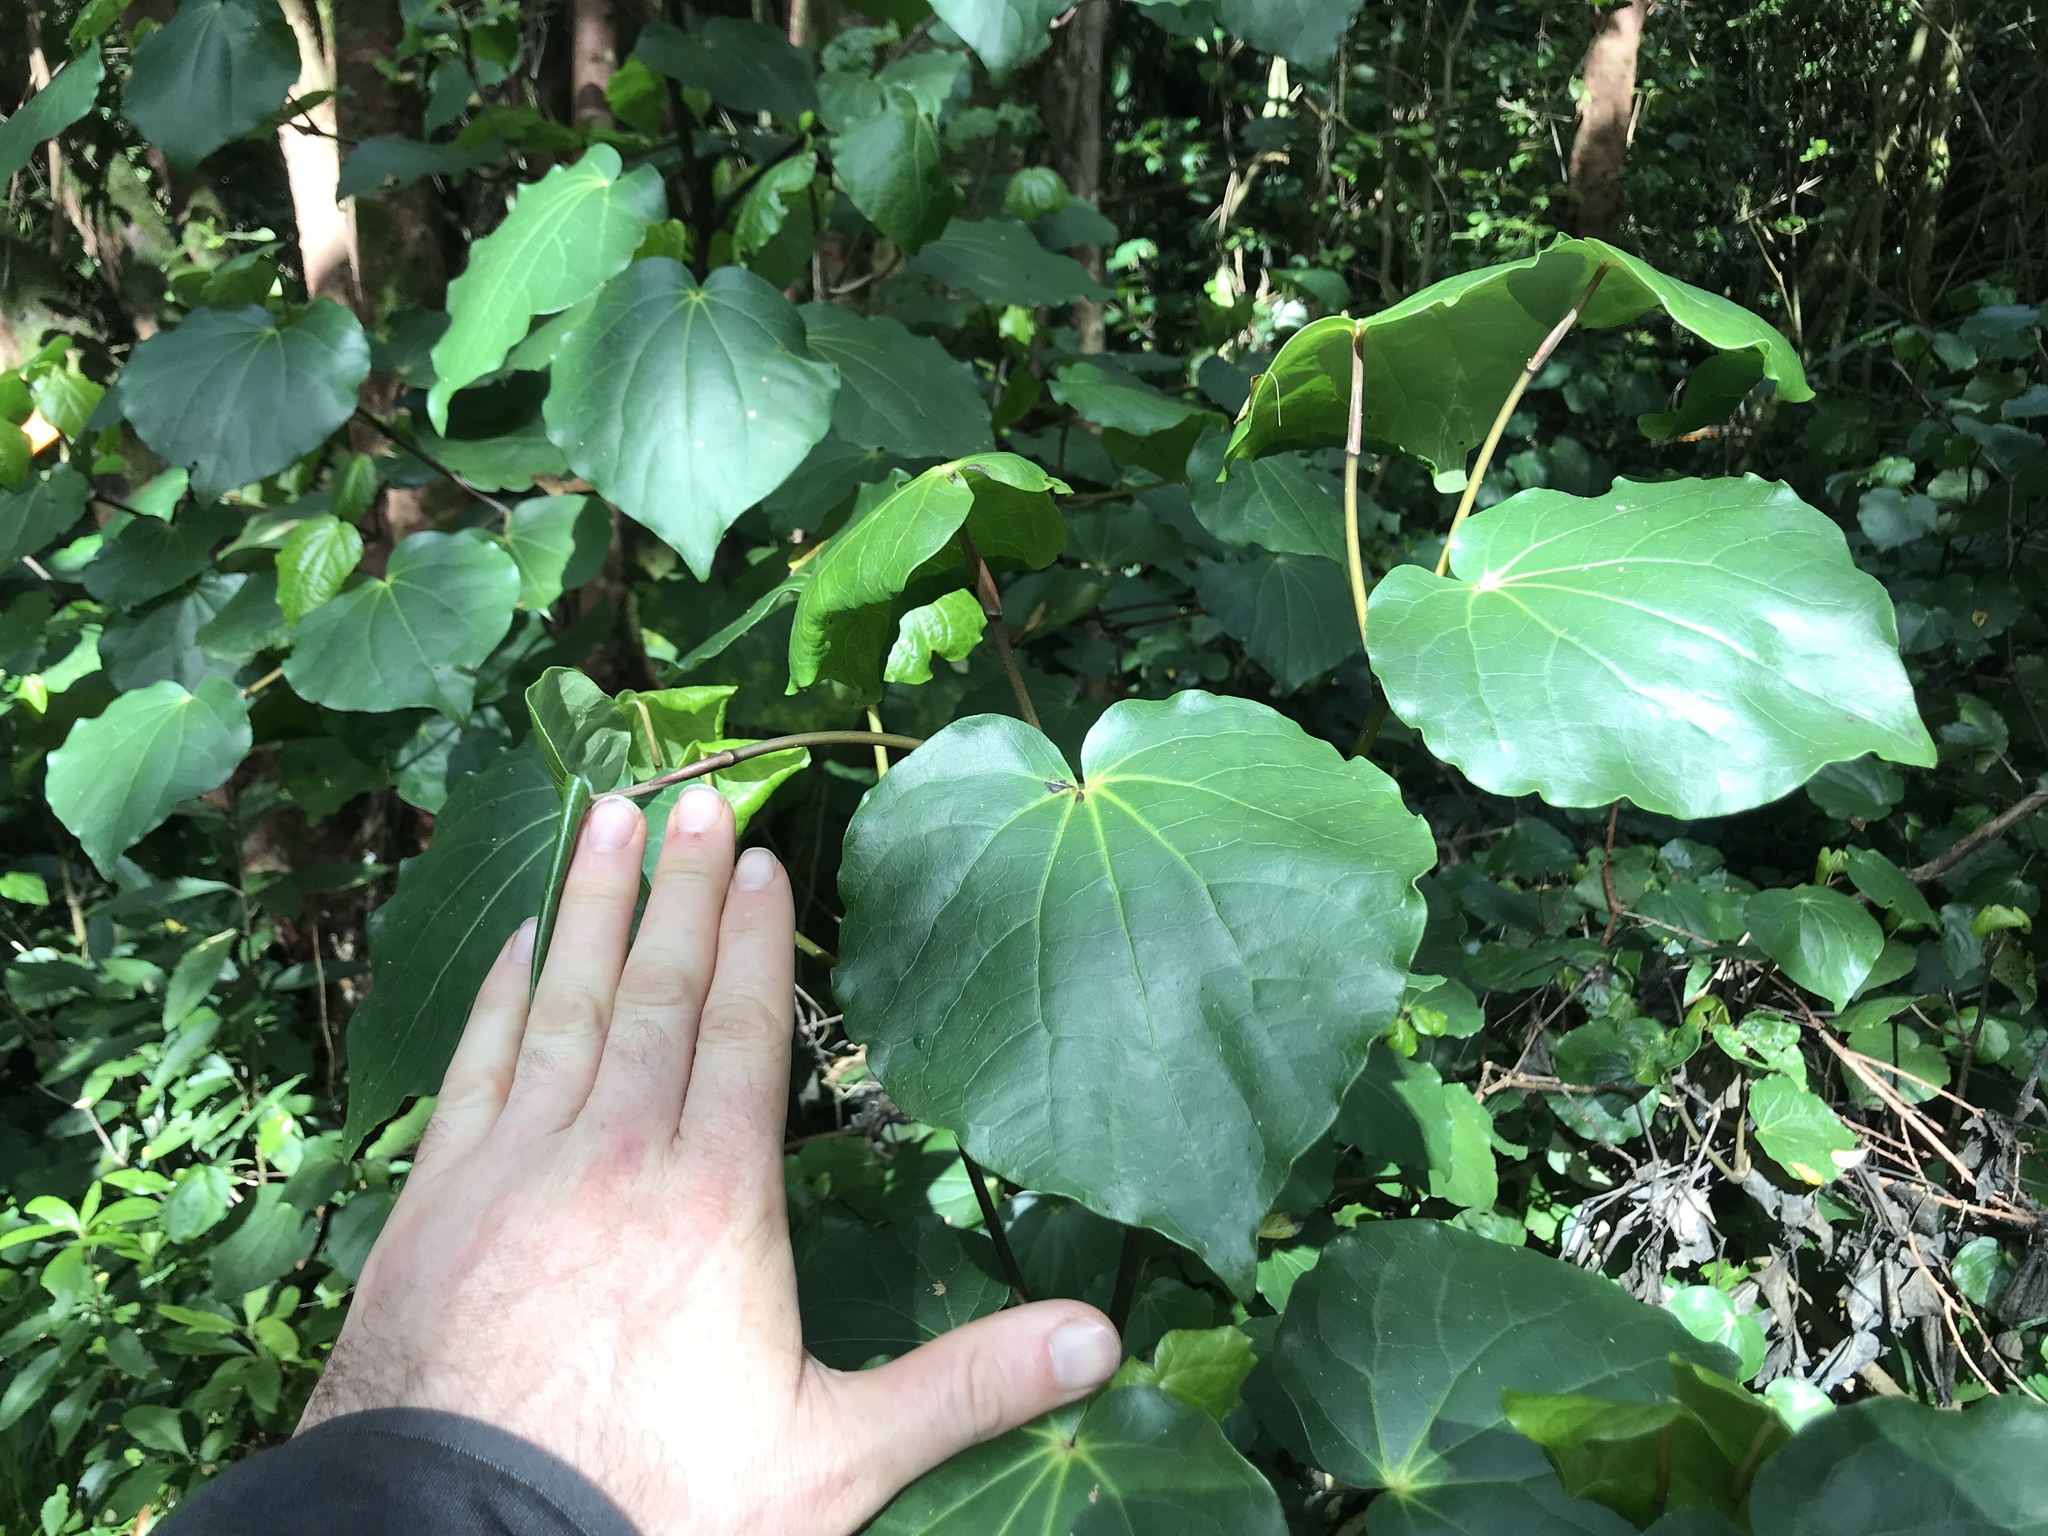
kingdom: Plantae
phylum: Tracheophyta
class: Magnoliopsida
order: Piperales
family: Piperaceae
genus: Macropiper
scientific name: Macropiper excelsum
